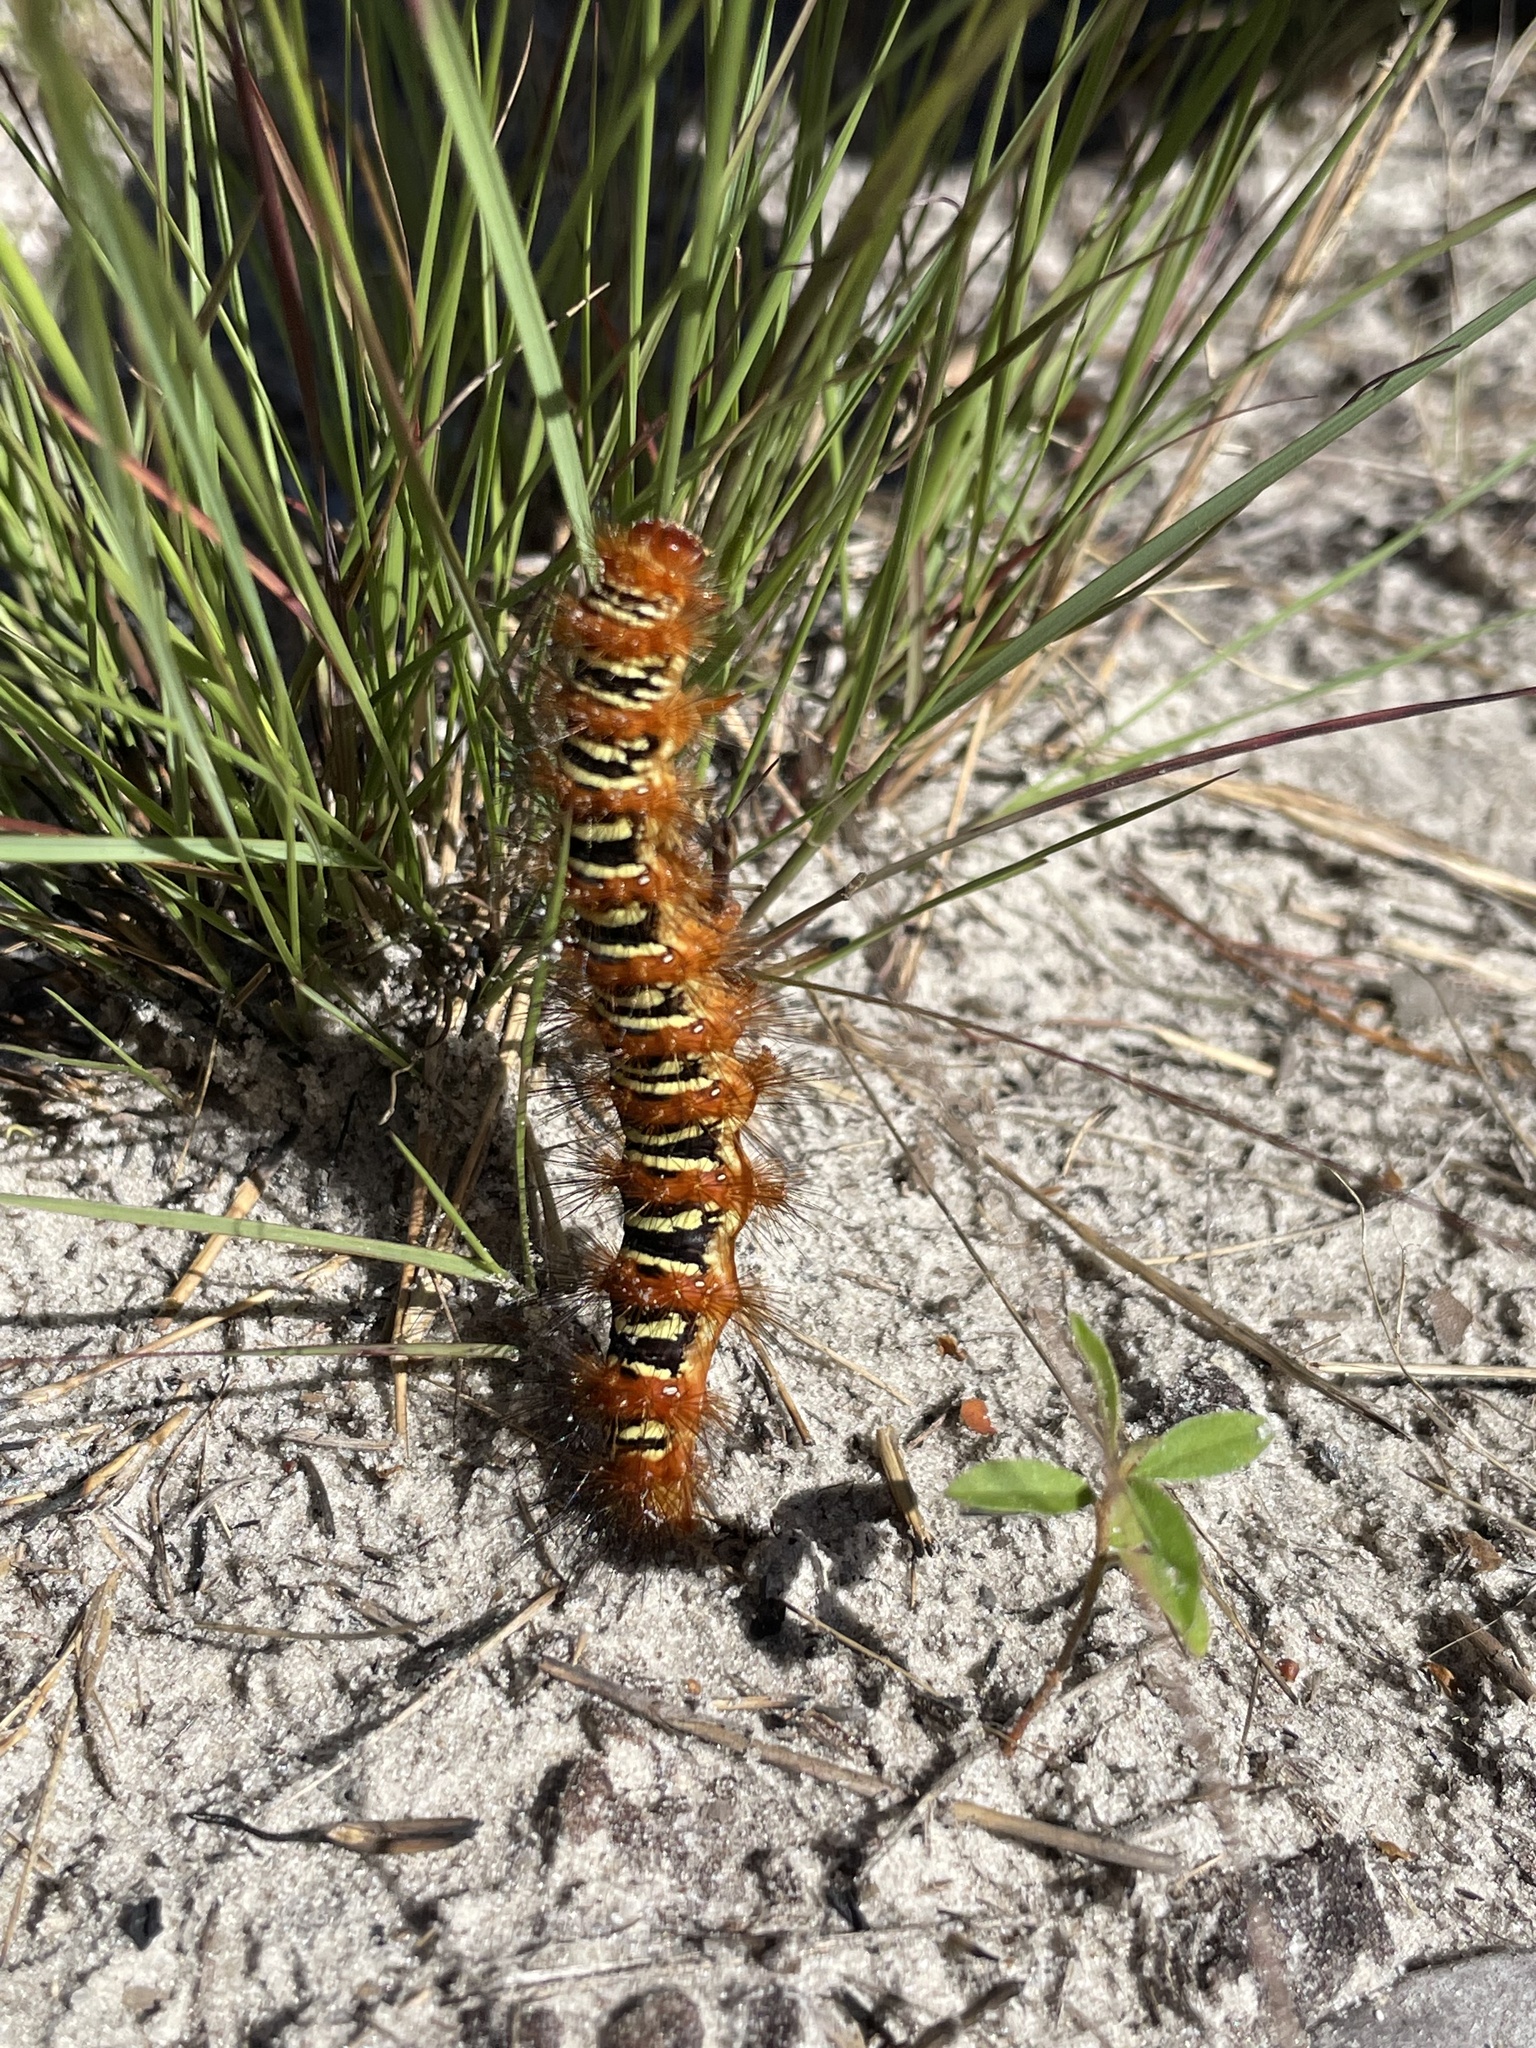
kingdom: Animalia
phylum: Arthropoda
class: Insecta
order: Lepidoptera
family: Erebidae
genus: Seirarctia
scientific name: Seirarctia echo
